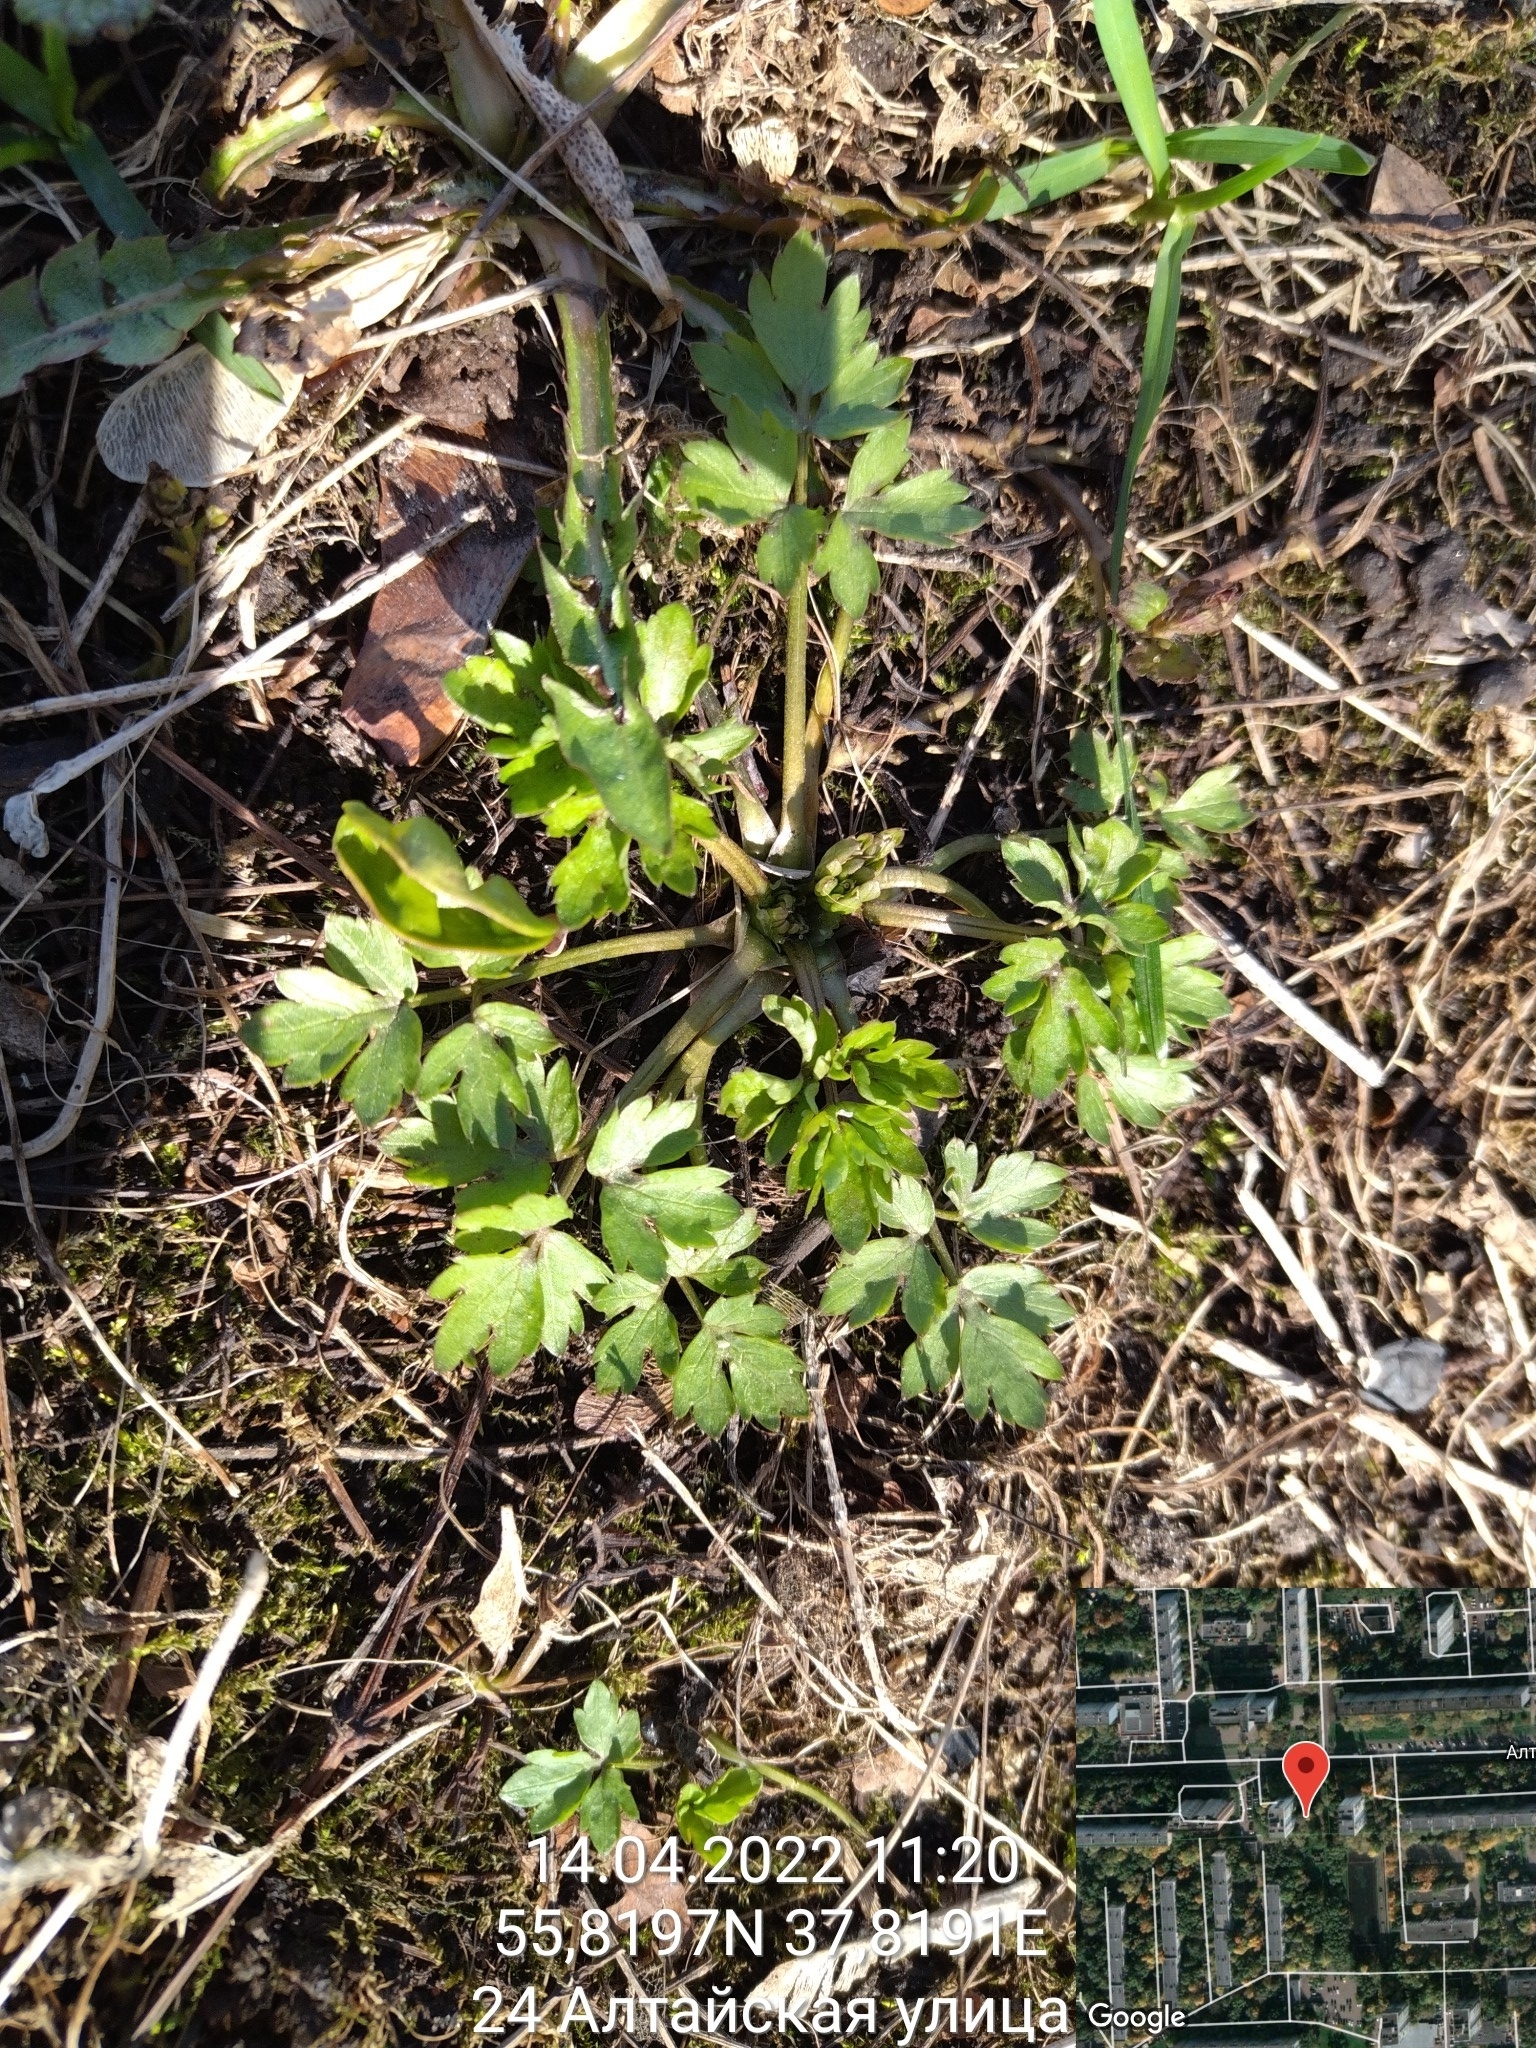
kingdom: Plantae
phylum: Tracheophyta
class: Magnoliopsida
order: Ranunculales
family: Ranunculaceae
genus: Ranunculus
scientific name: Ranunculus repens
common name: Creeping buttercup
